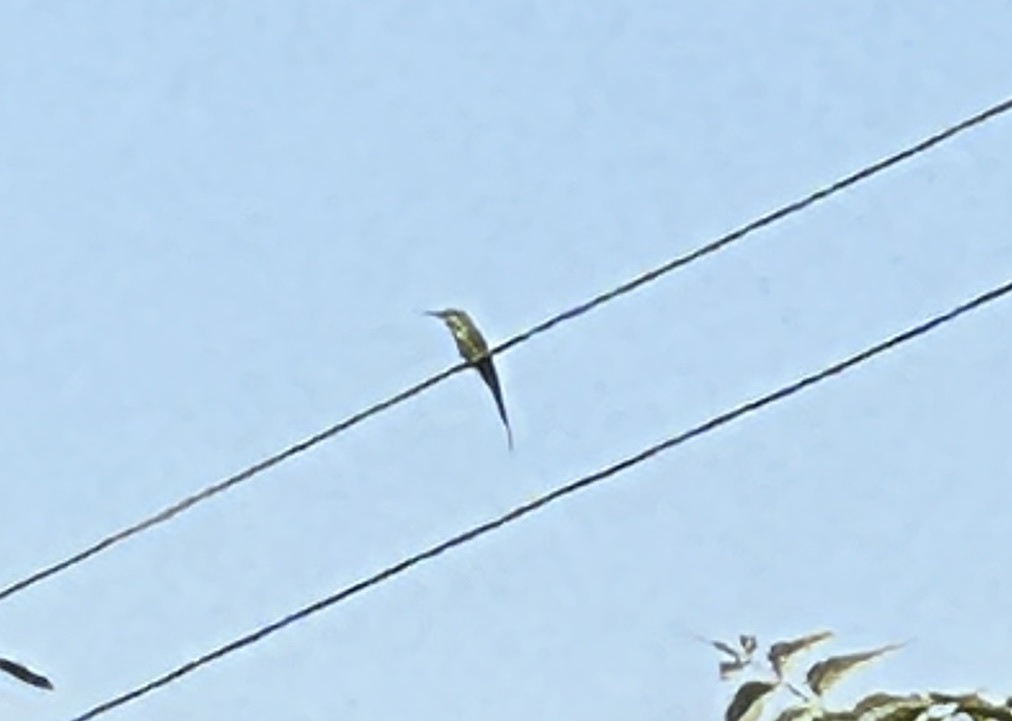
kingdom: Animalia
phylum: Chordata
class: Aves
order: Coraciiformes
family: Meropidae
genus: Merops
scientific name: Merops philippinus
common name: Blue-tailed bee-eater
